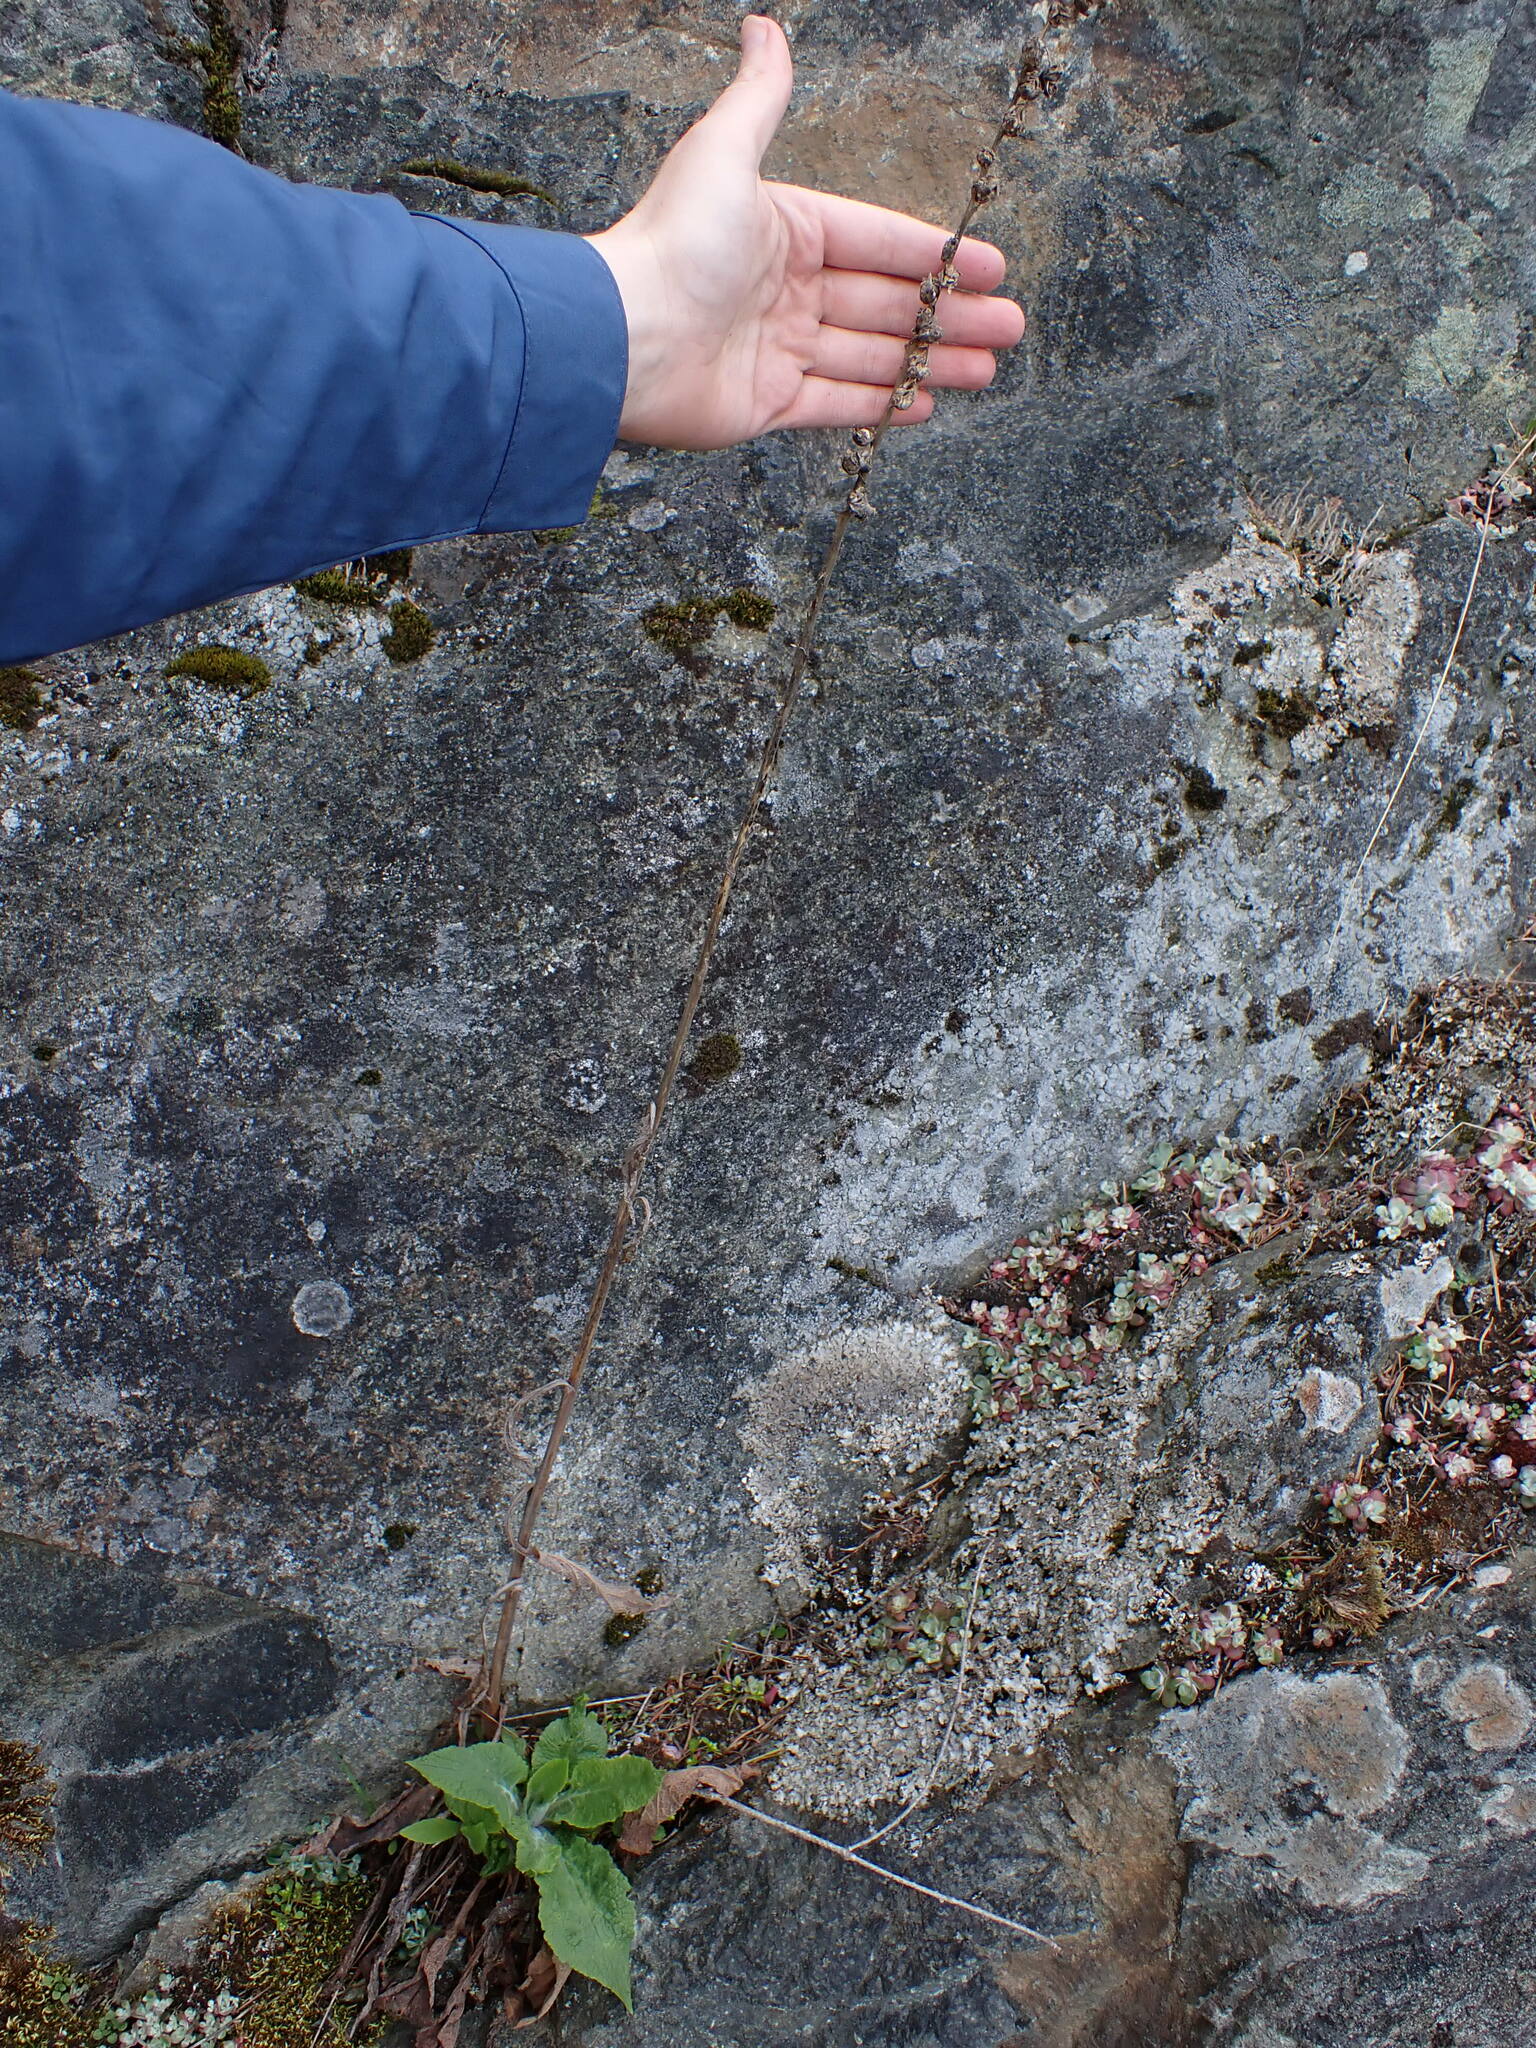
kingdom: Plantae
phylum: Tracheophyta
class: Magnoliopsida
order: Lamiales
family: Plantaginaceae
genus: Digitalis
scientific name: Digitalis purpurea
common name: Foxglove
